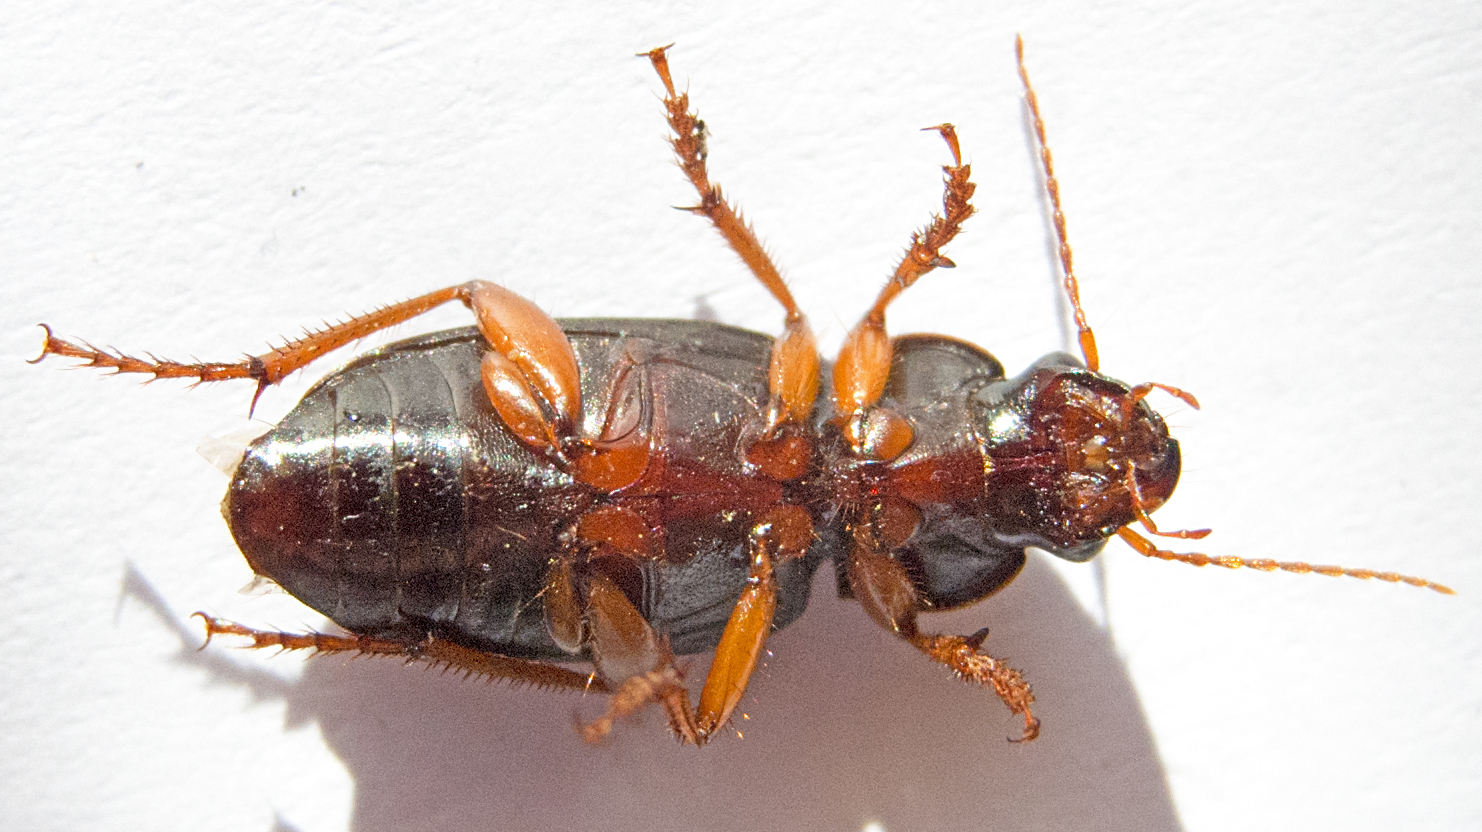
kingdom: Animalia
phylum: Arthropoda
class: Insecta
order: Coleoptera
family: Carabidae
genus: Harpalus
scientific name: Harpalus rufipes
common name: Strawberry harp ground beetle
